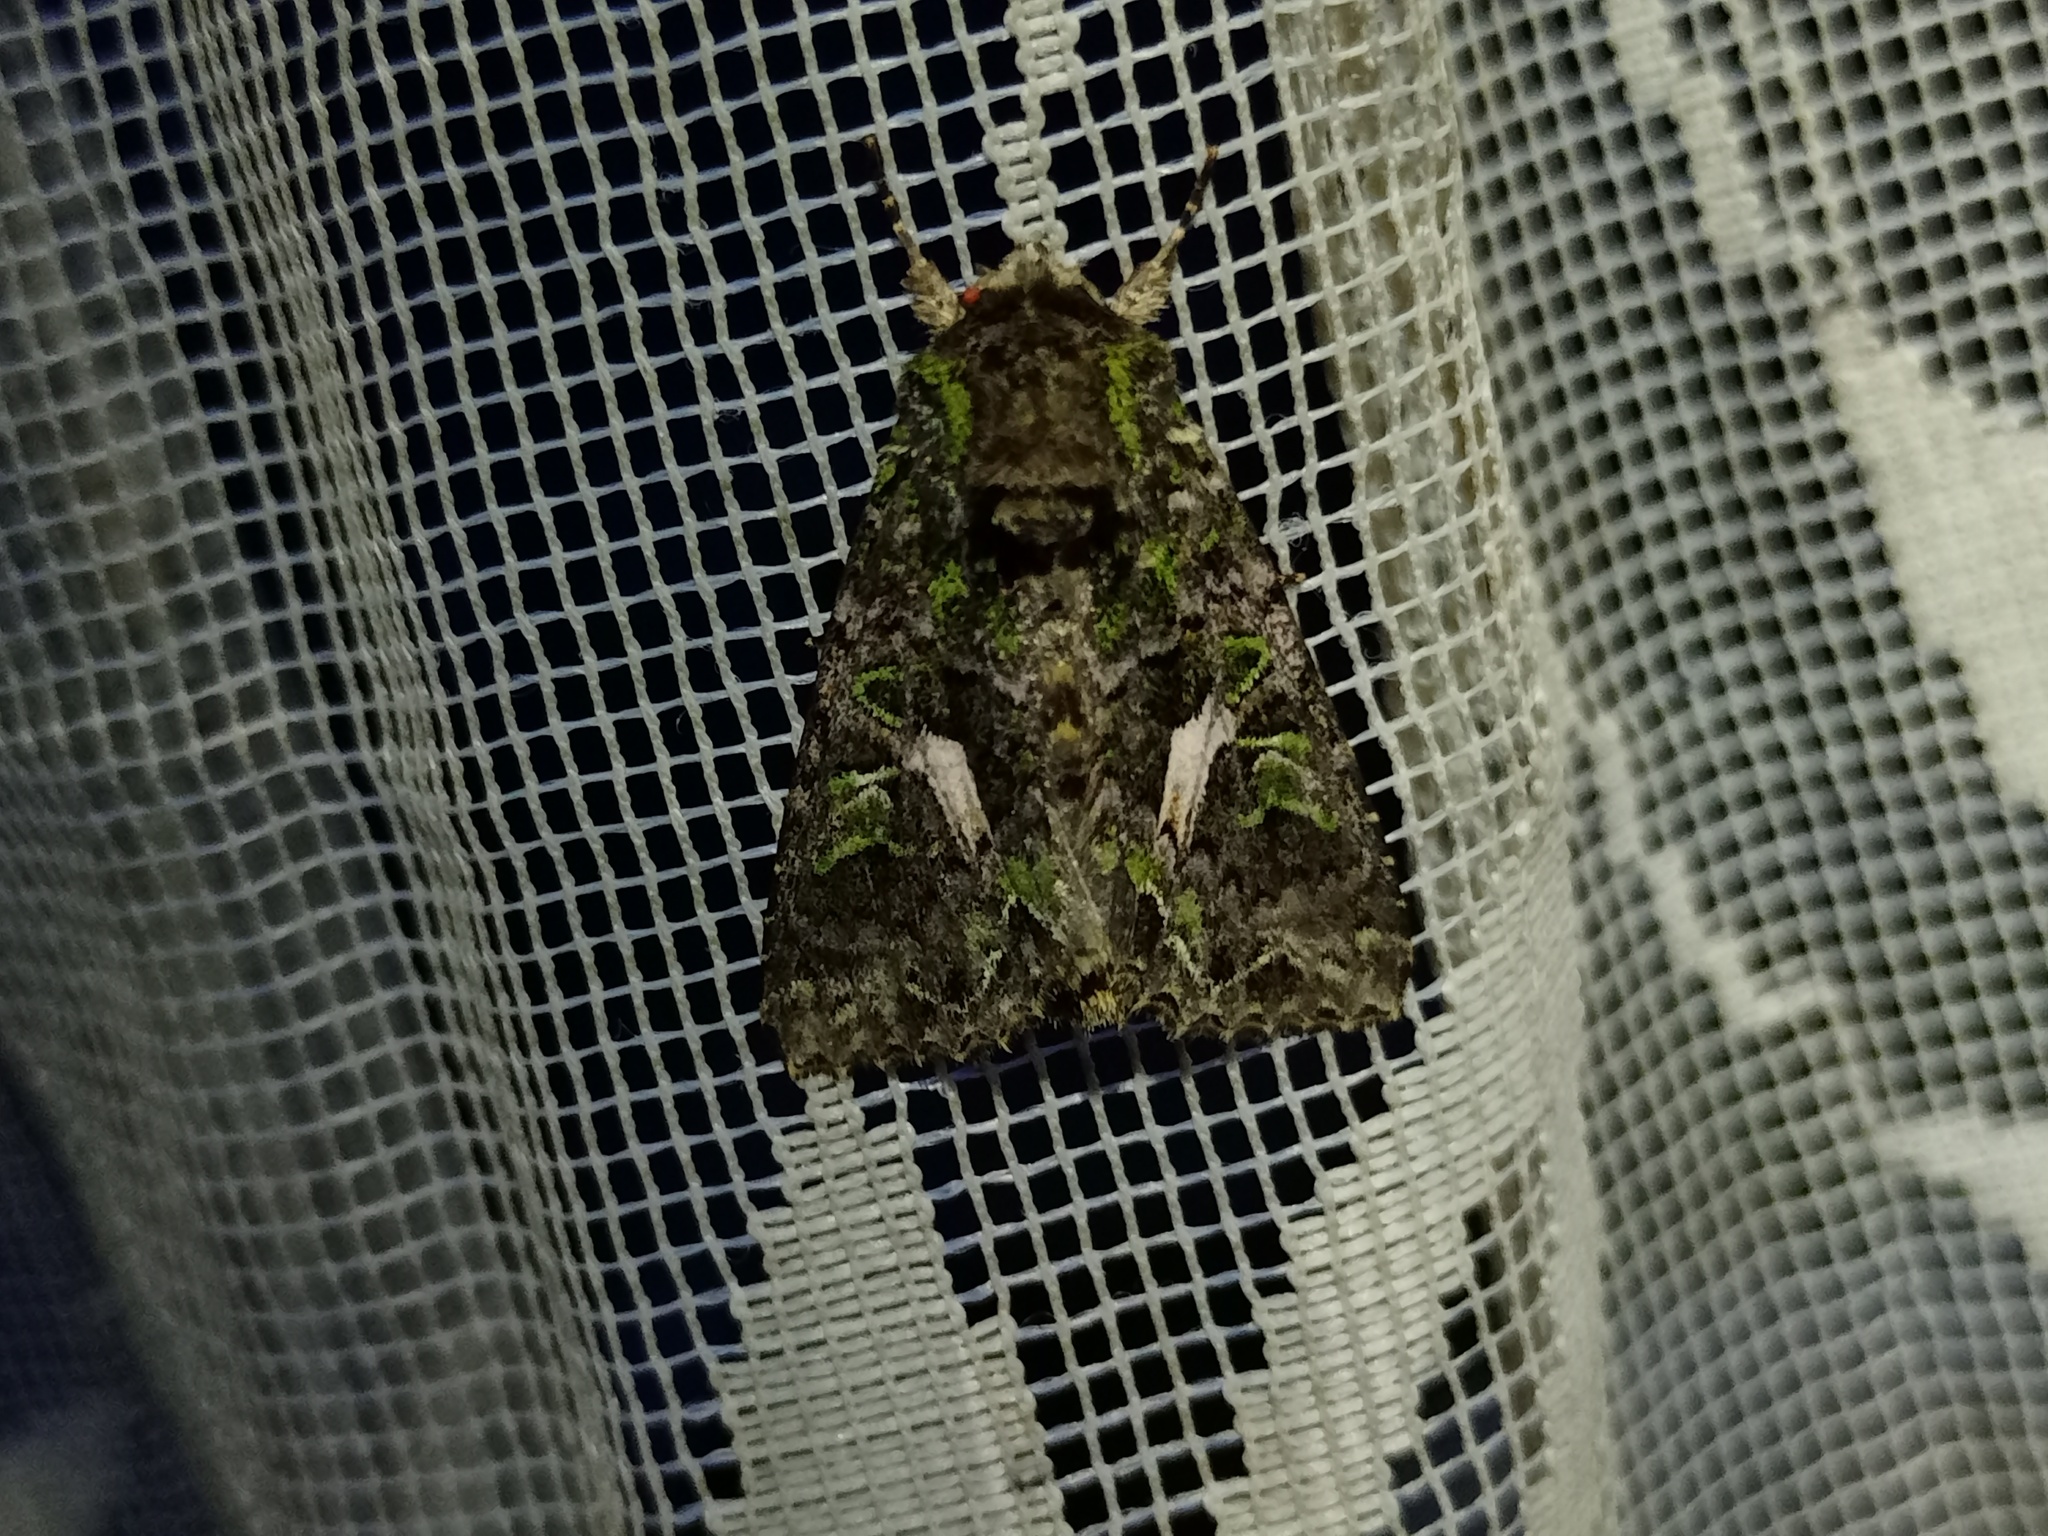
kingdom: Animalia
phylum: Arthropoda
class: Insecta
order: Lepidoptera
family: Noctuidae
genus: Trachea
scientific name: Trachea atriplicis
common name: Orache moth
